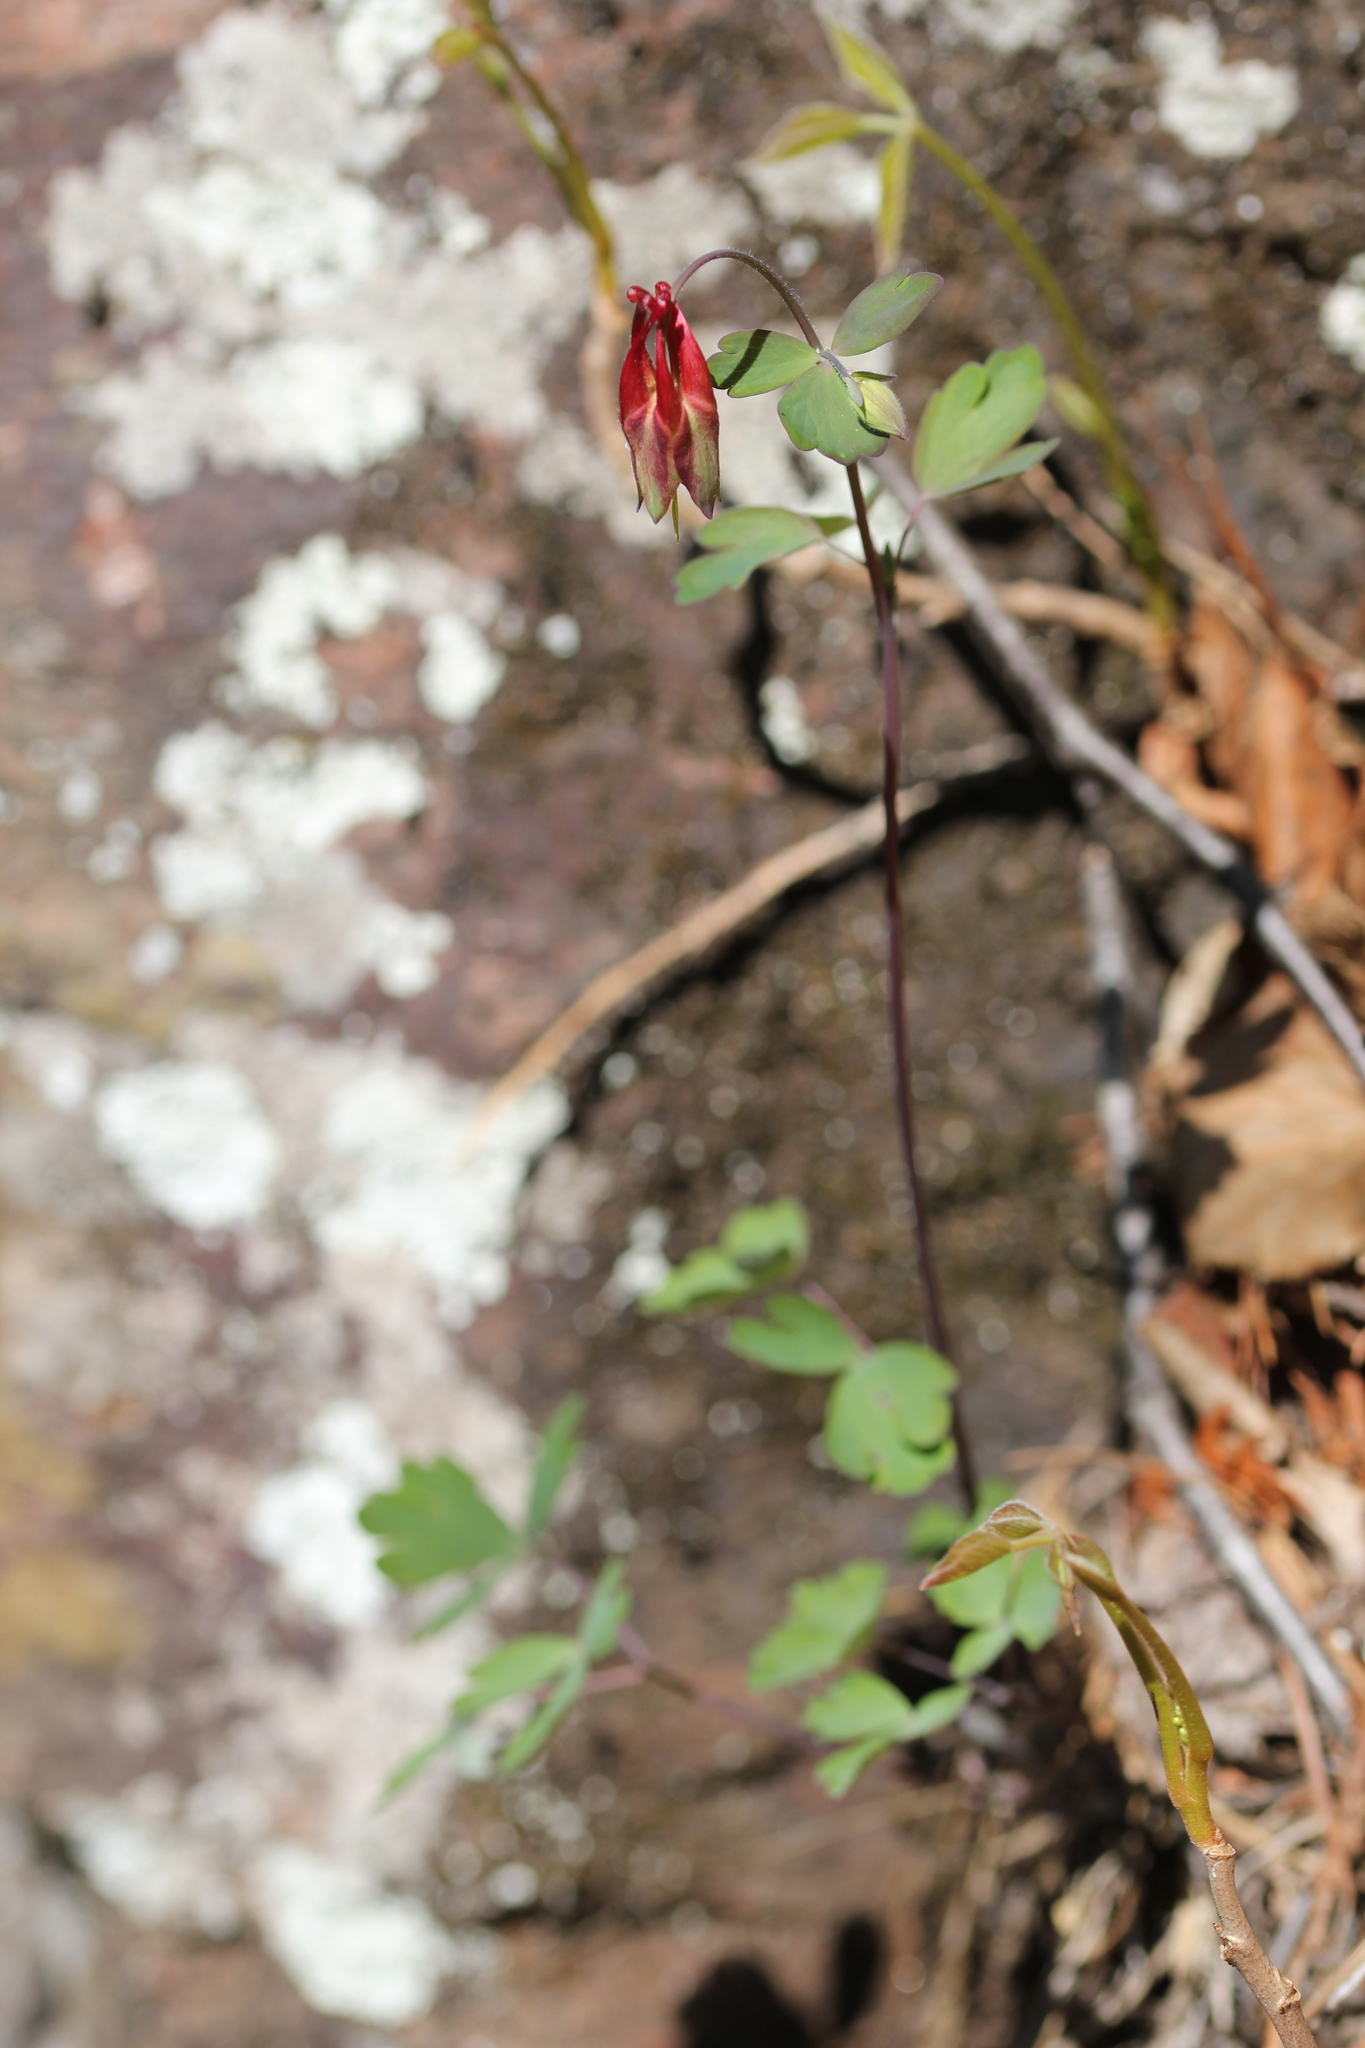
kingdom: Plantae
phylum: Tracheophyta
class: Magnoliopsida
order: Ranunculales
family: Ranunculaceae
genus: Aquilegia
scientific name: Aquilegia canadensis
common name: American columbine
